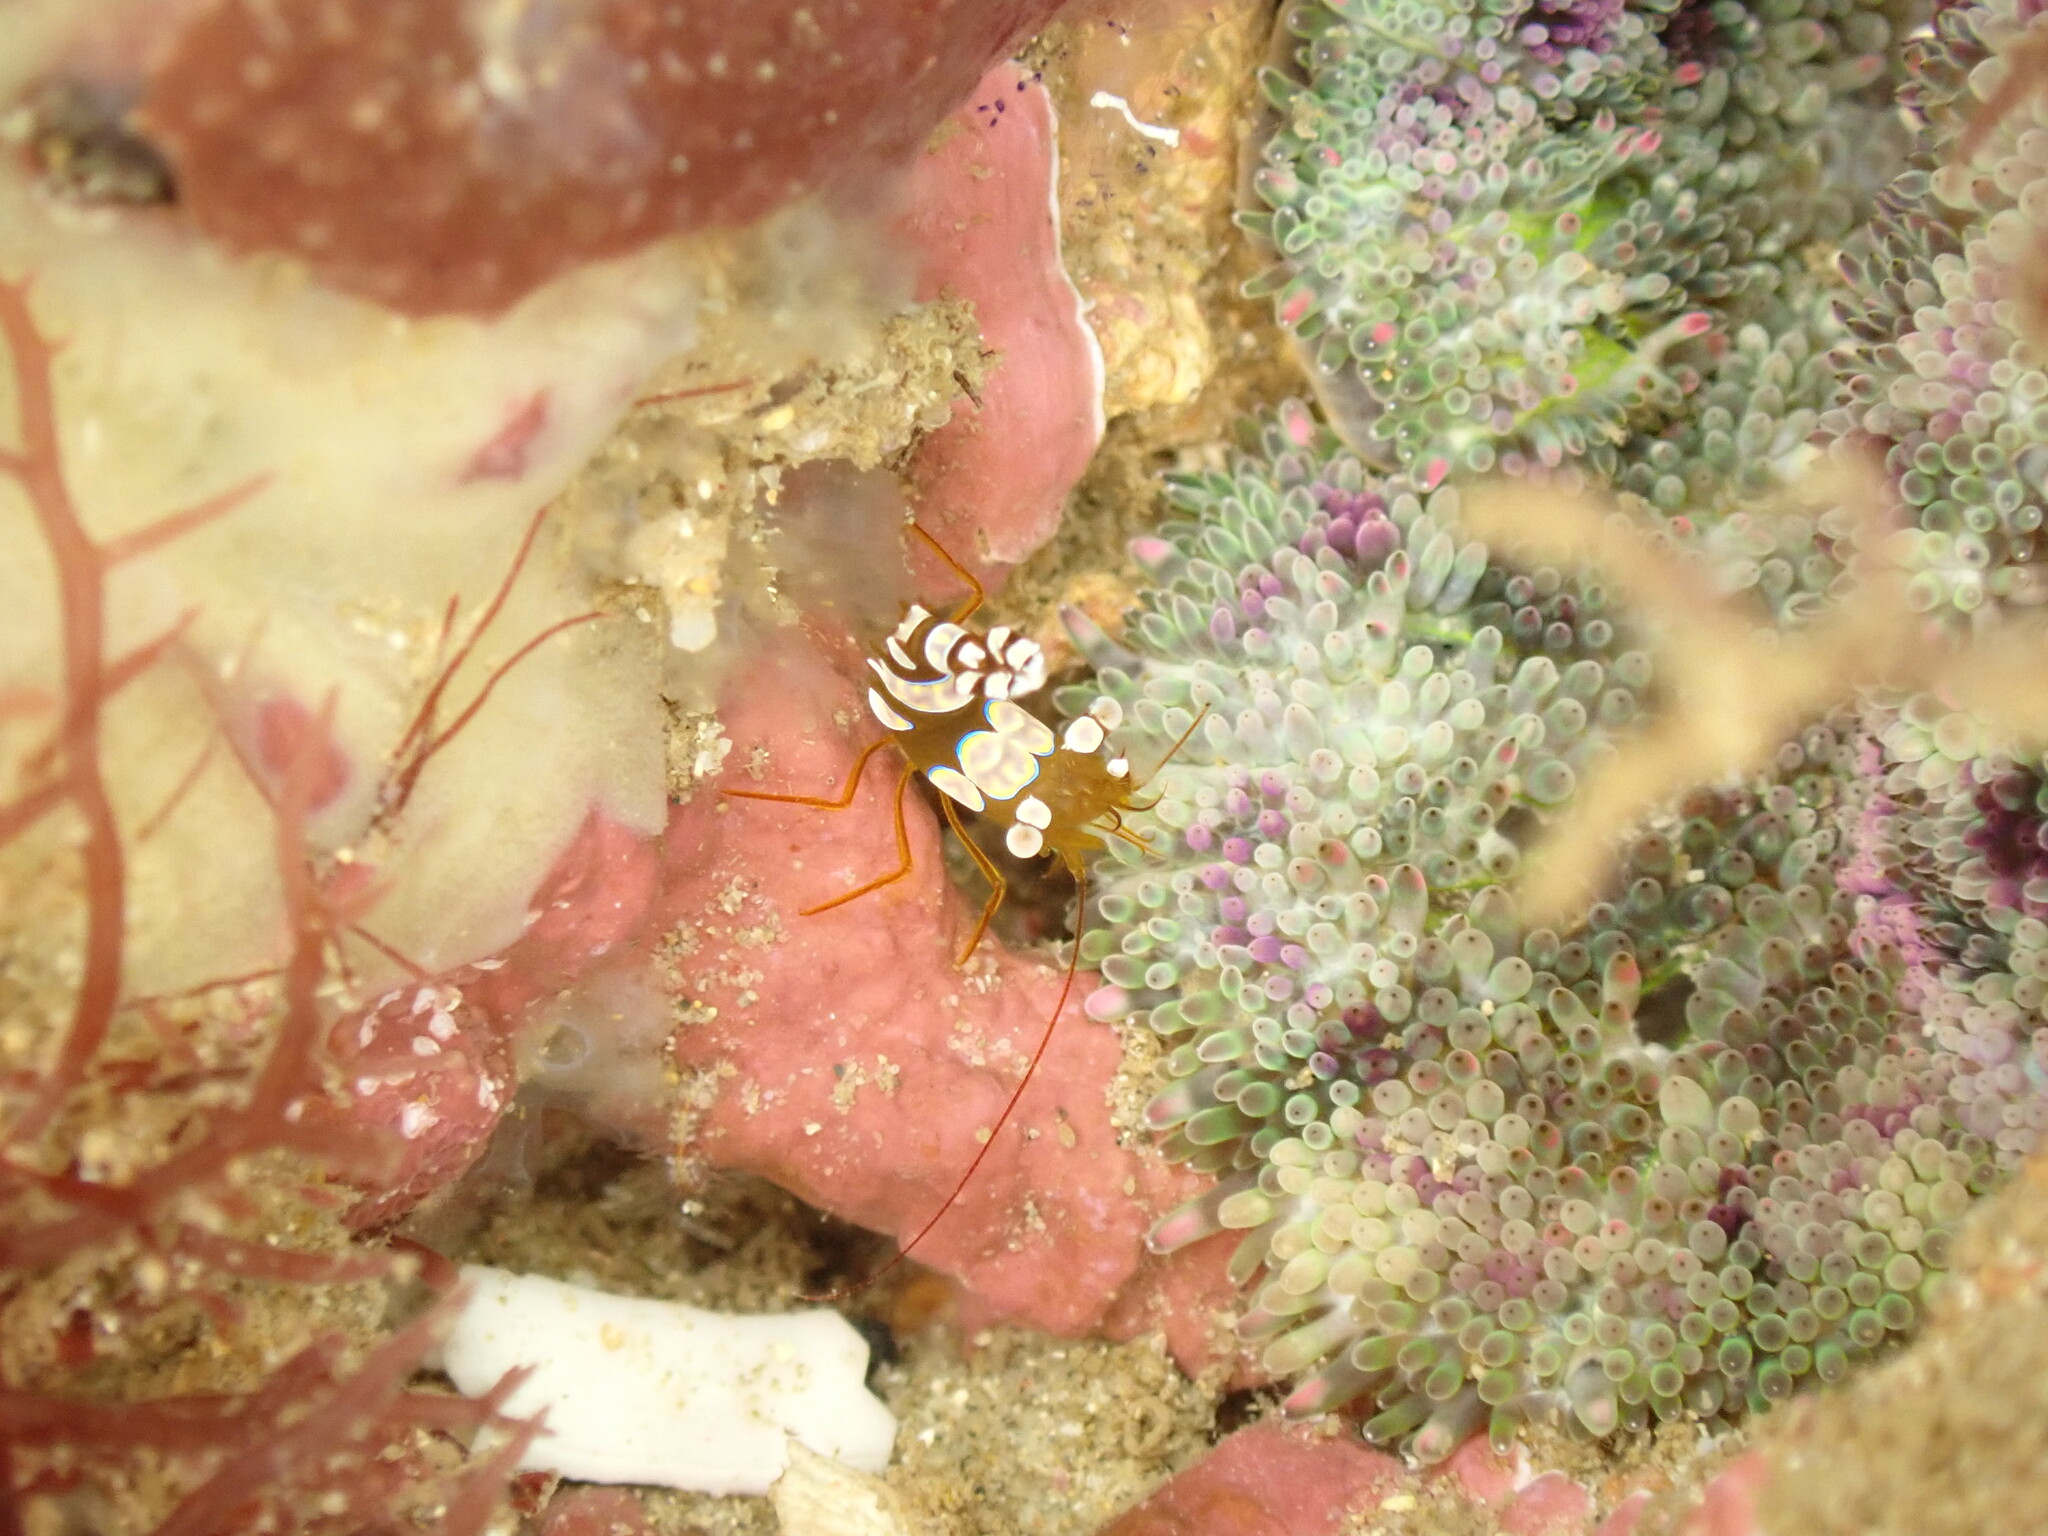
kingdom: Animalia
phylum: Arthropoda
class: Malacostraca
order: Decapoda
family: Thoridae
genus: Thor
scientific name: Thor amboinensis
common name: Squat anemone shrimp
